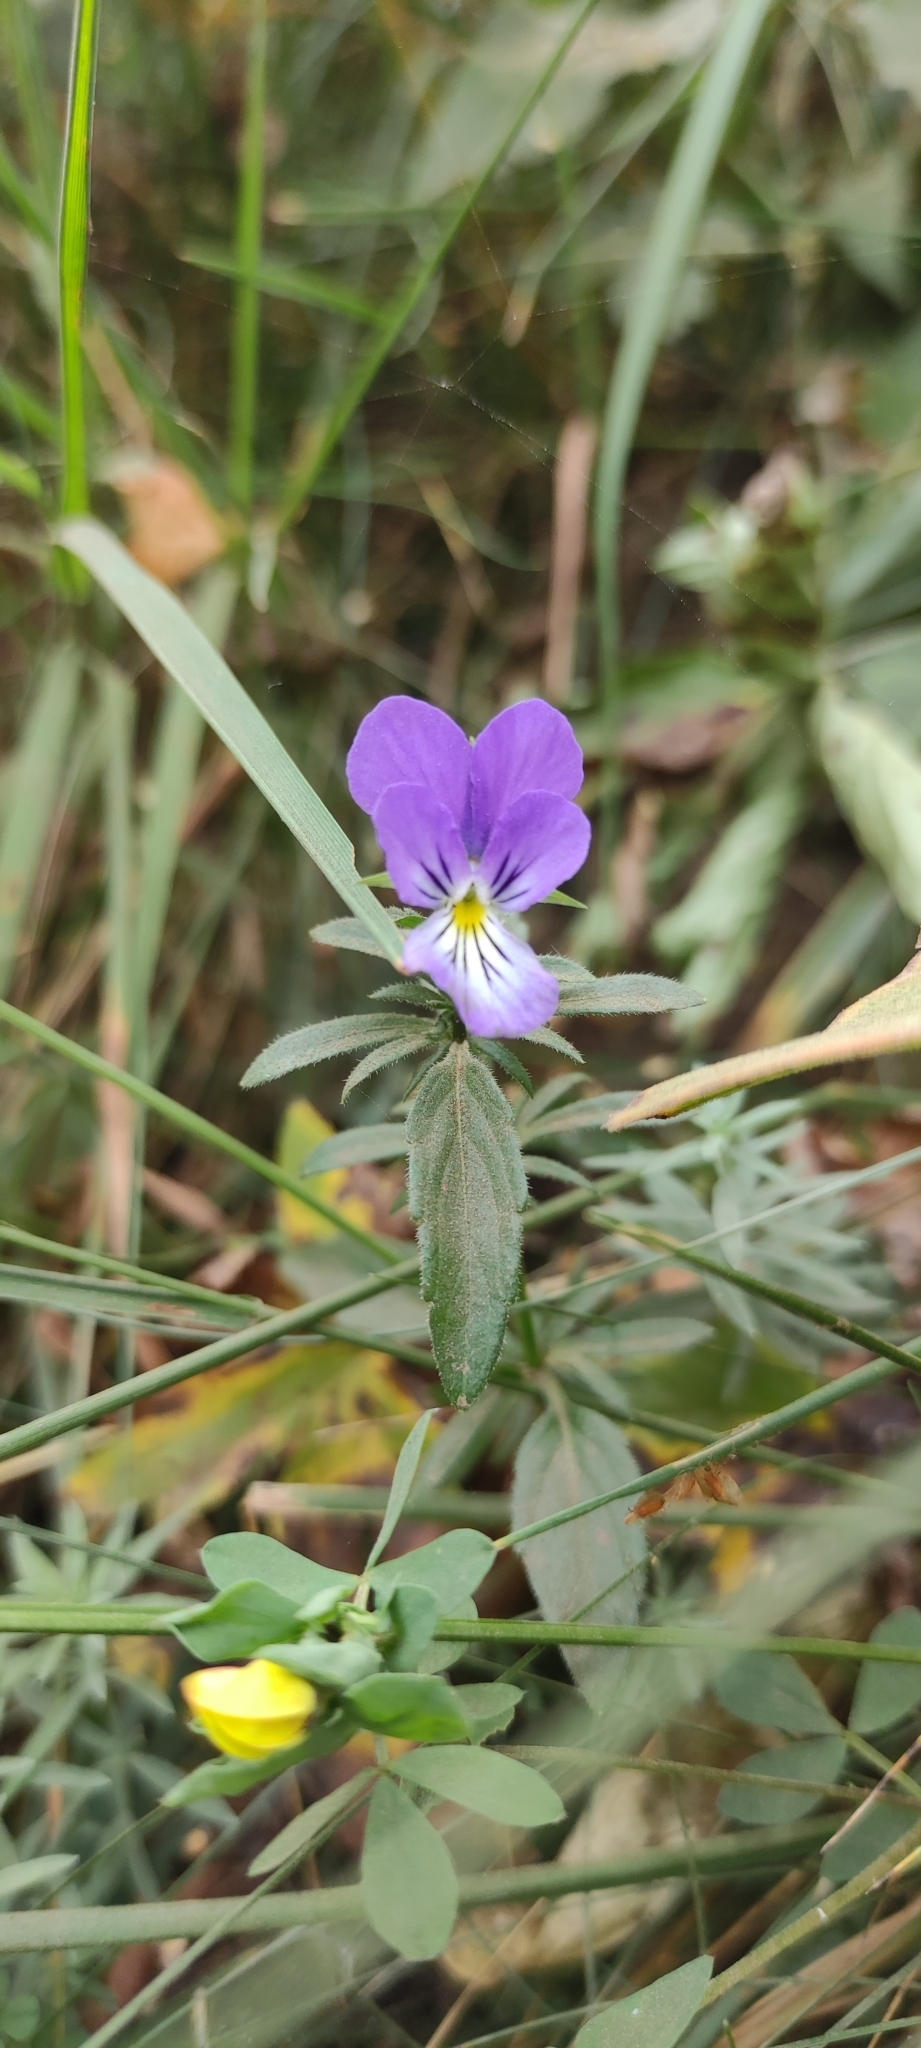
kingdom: Plantae
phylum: Tracheophyta
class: Magnoliopsida
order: Malpighiales
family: Violaceae
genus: Viola
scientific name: Viola lutea
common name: Mountain pansy
